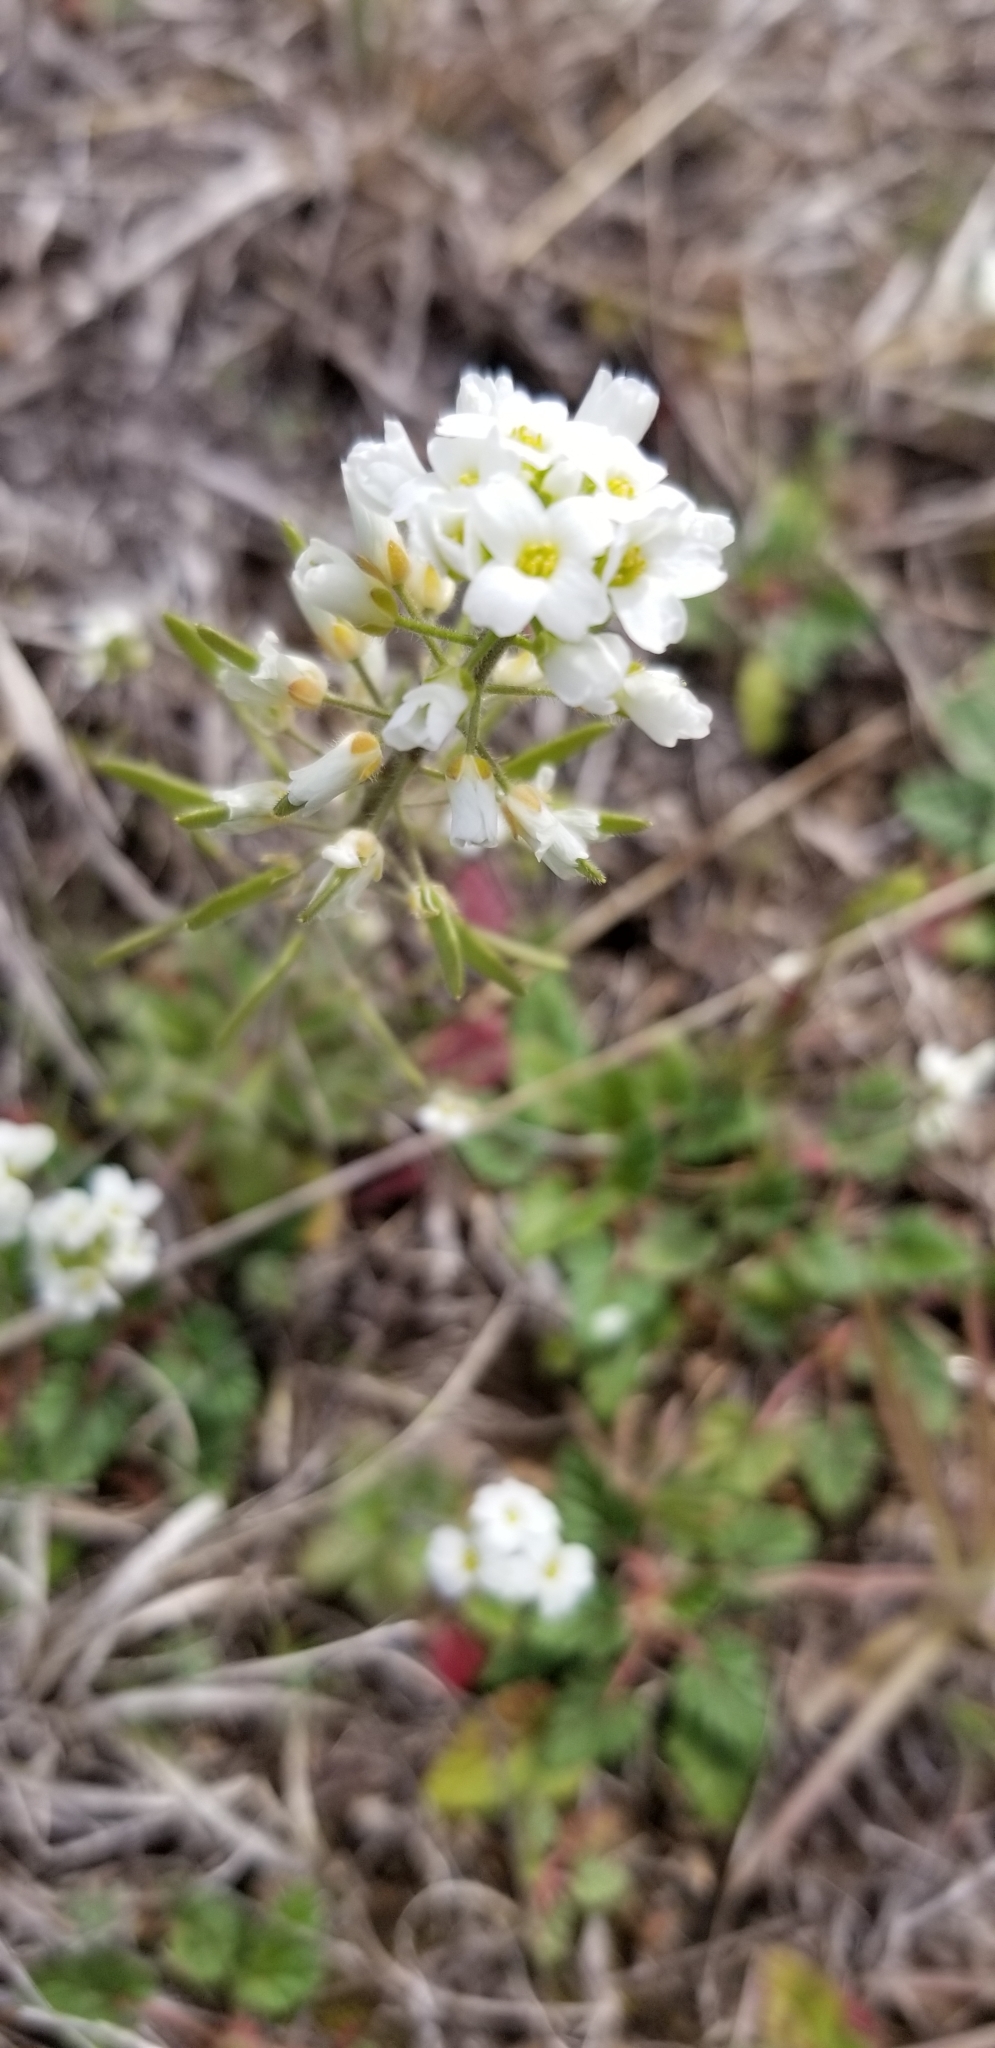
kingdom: Plantae
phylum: Tracheophyta
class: Magnoliopsida
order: Brassicales
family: Brassicaceae
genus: Tomostima
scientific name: Tomostima cuneifolia
